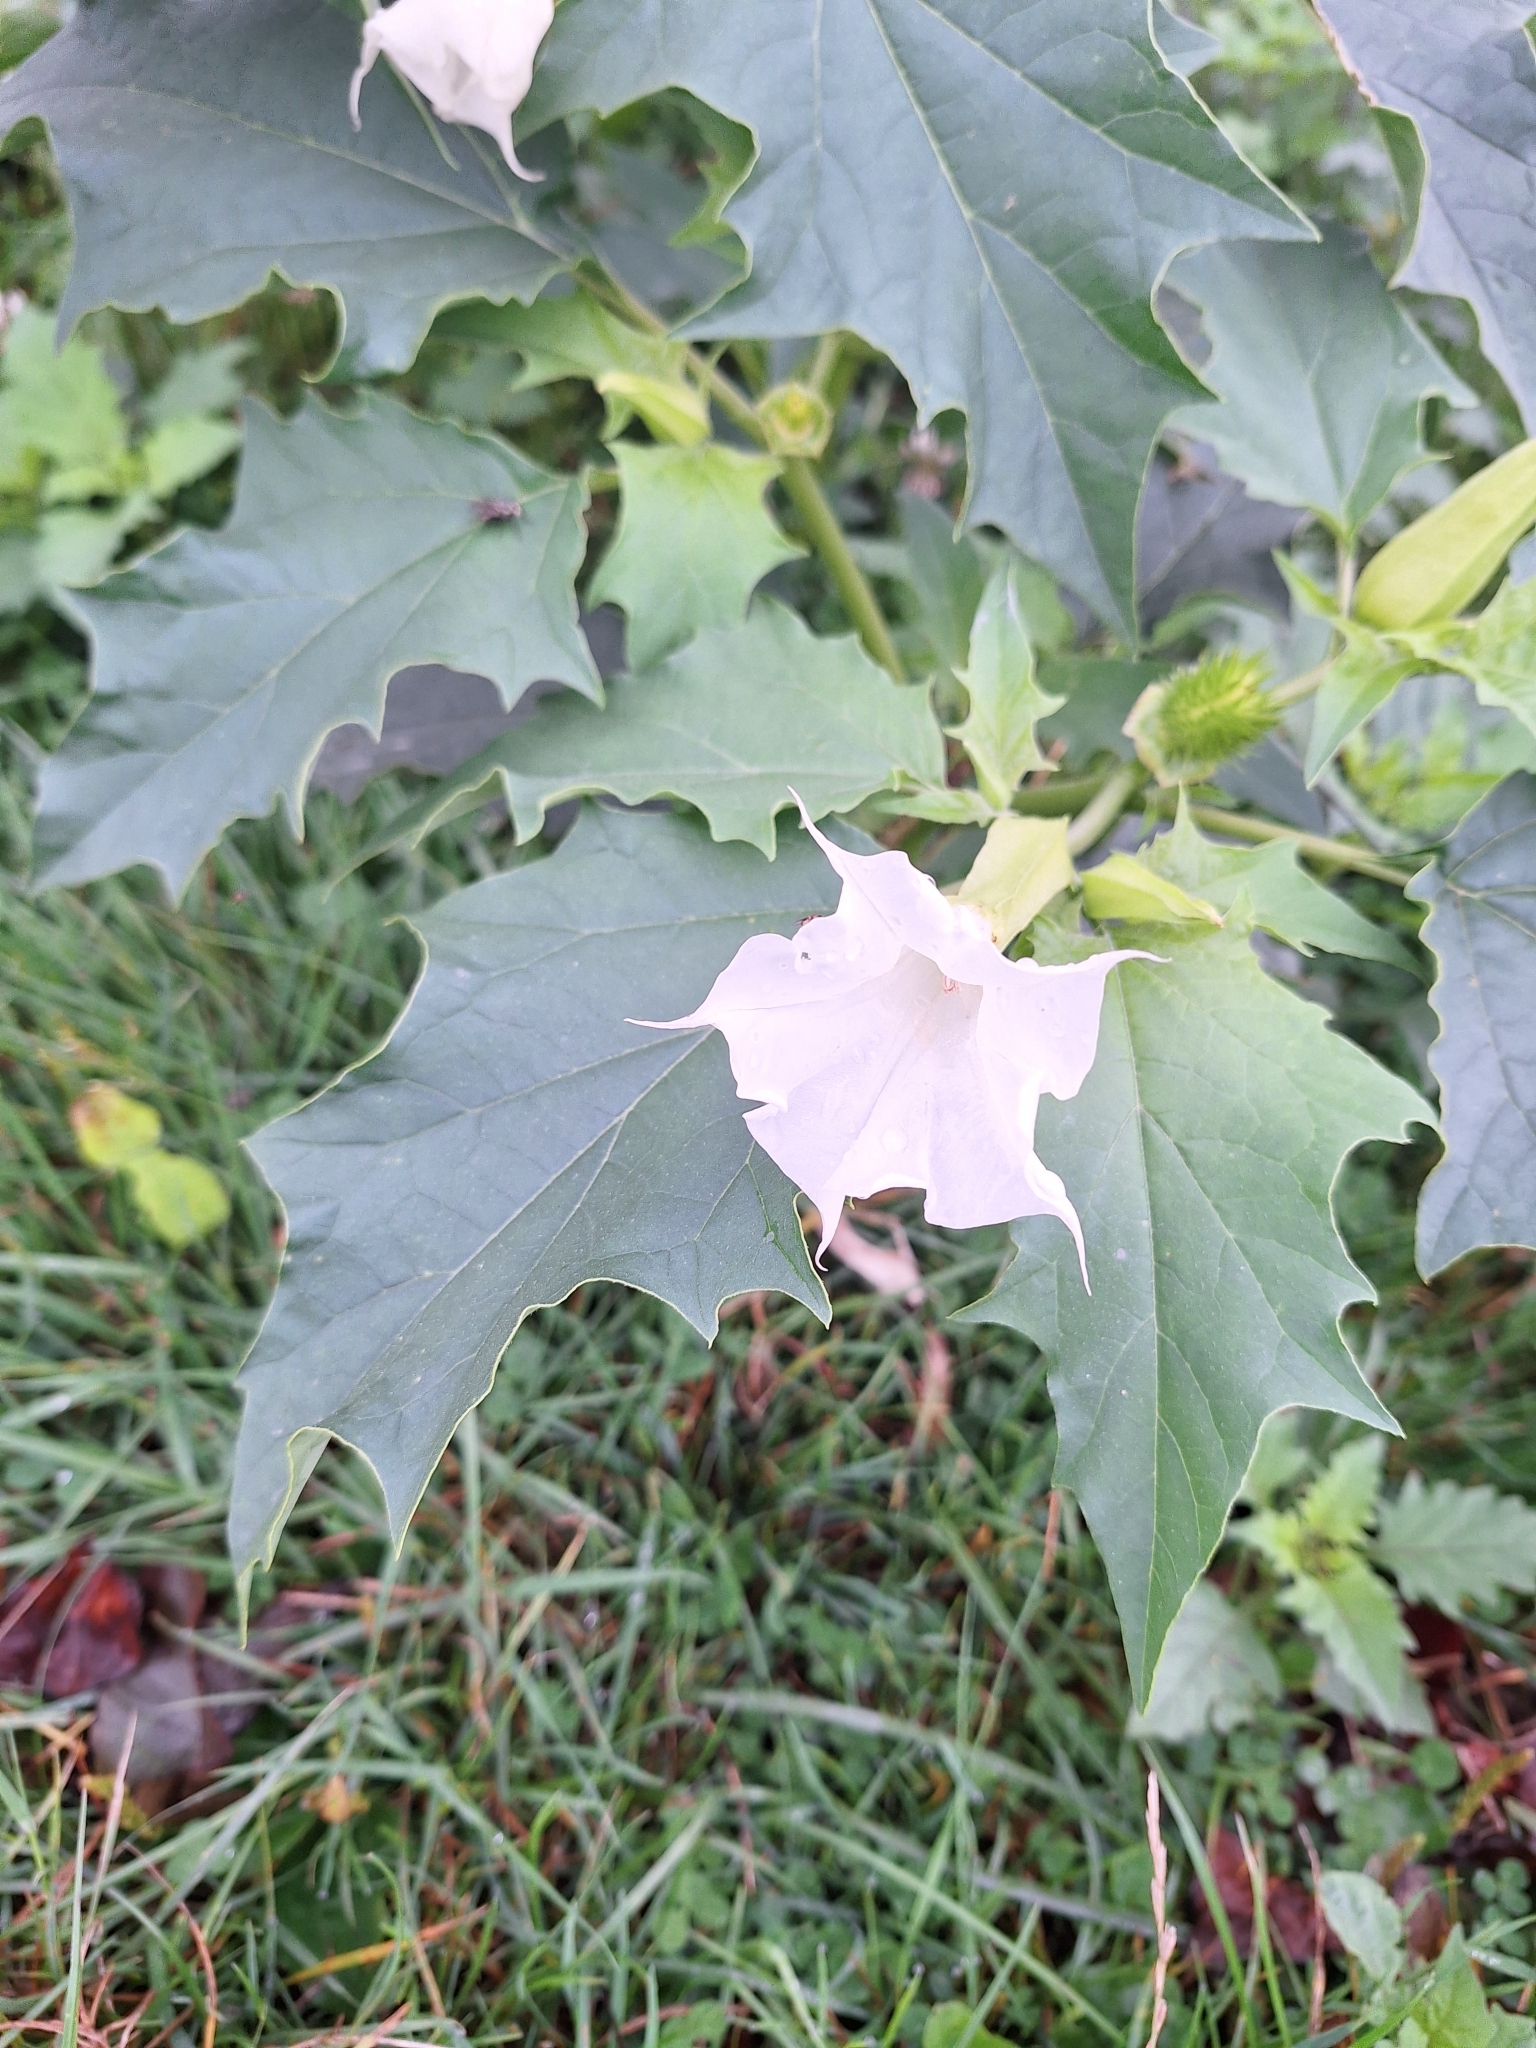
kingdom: Plantae
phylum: Tracheophyta
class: Magnoliopsida
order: Solanales
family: Solanaceae
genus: Datura
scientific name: Datura stramonium
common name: Thorn-apple
